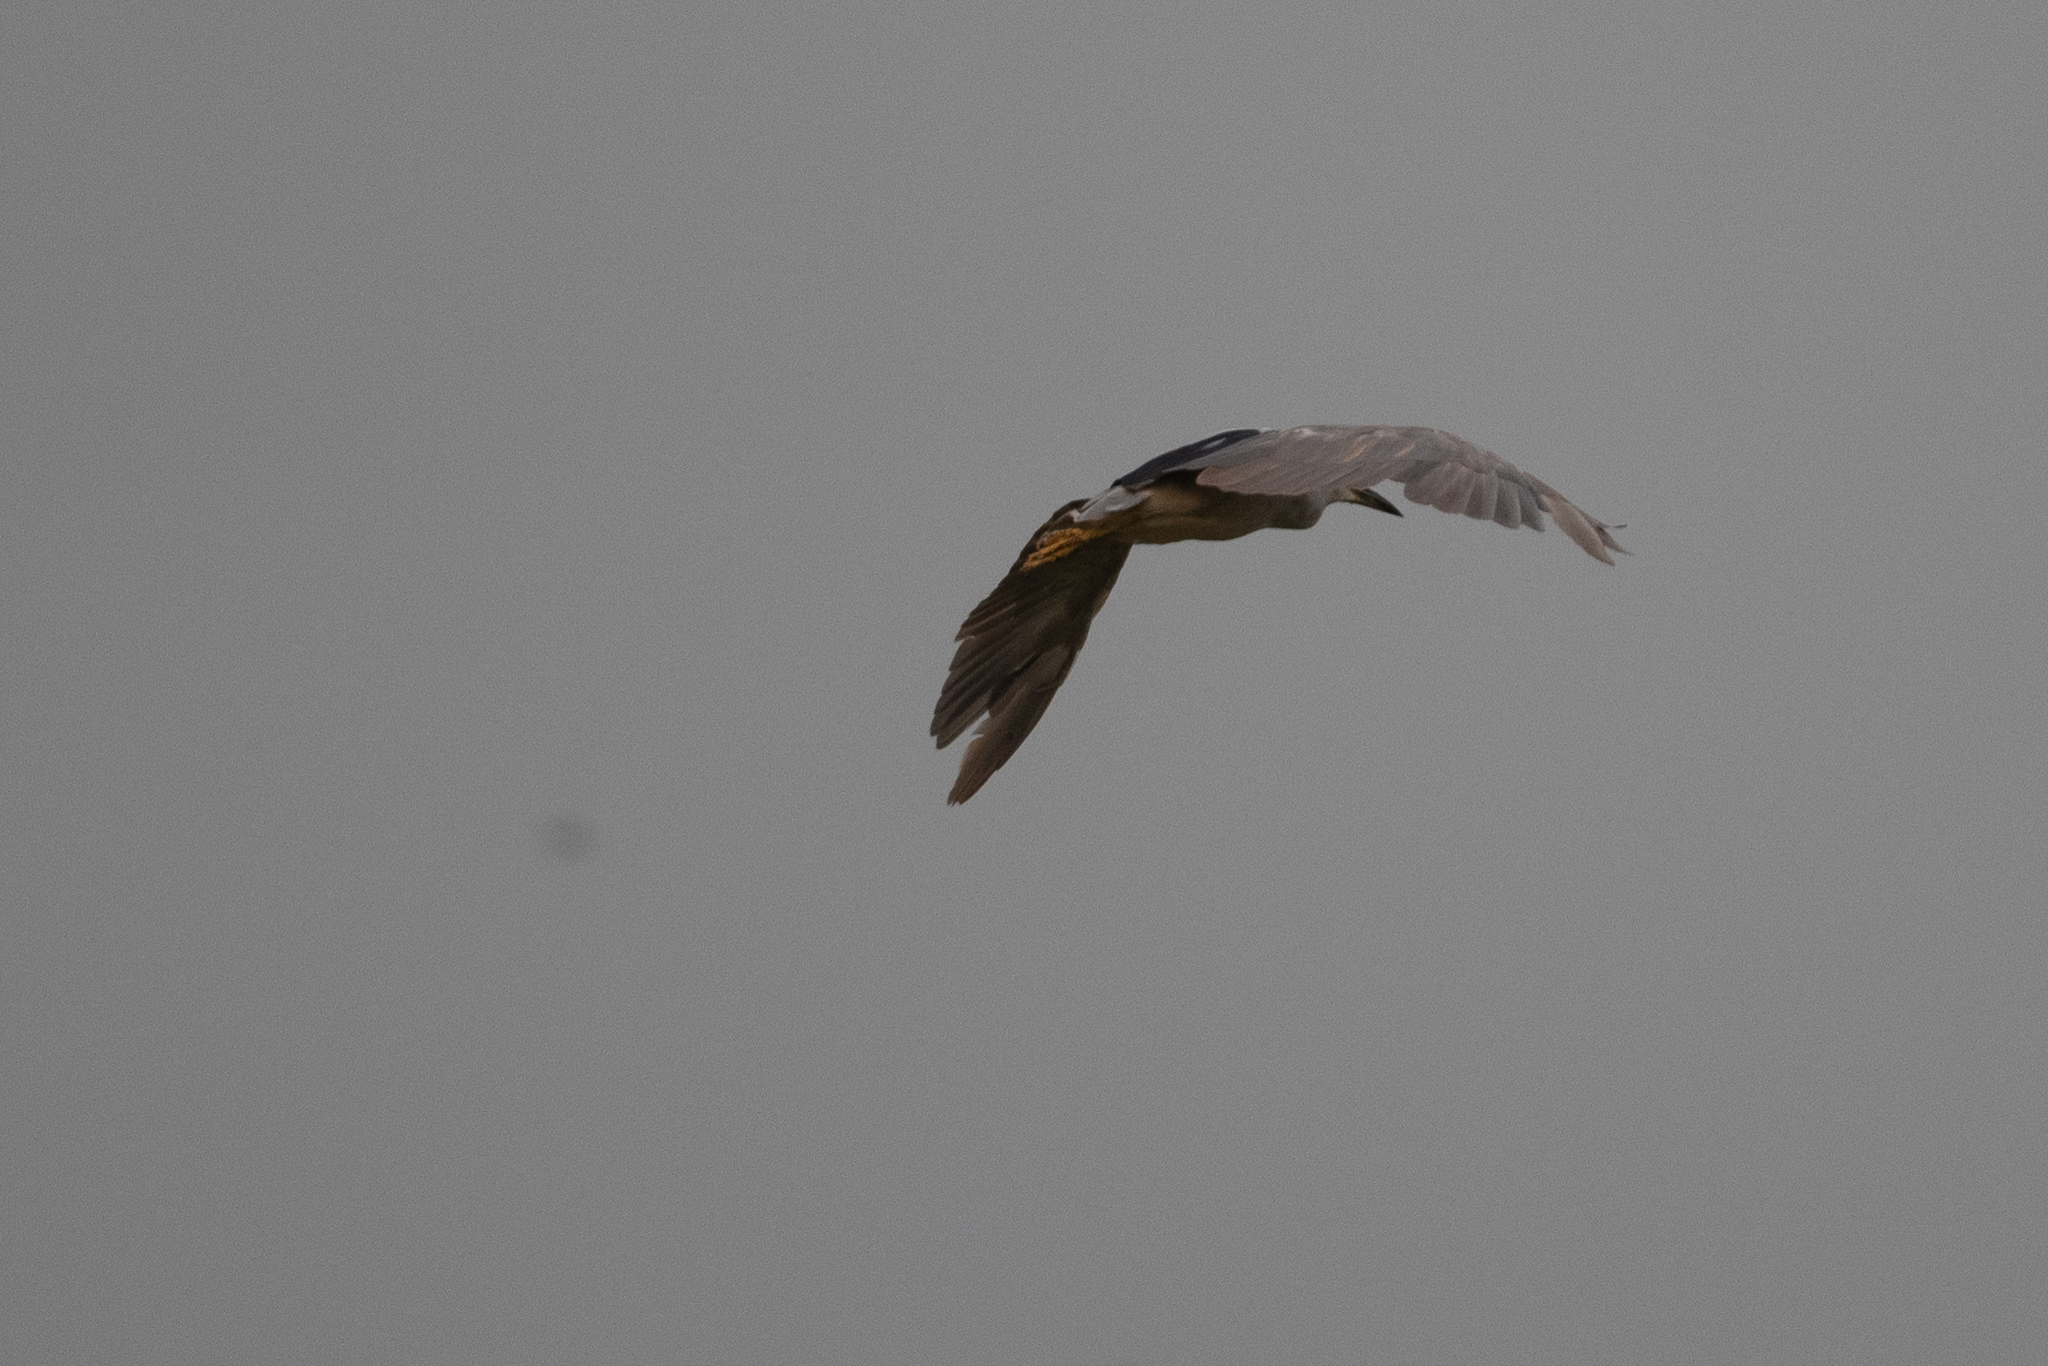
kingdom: Animalia
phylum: Chordata
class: Aves
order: Pelecaniformes
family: Ardeidae
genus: Nycticorax
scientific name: Nycticorax nycticorax
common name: Black-crowned night heron
